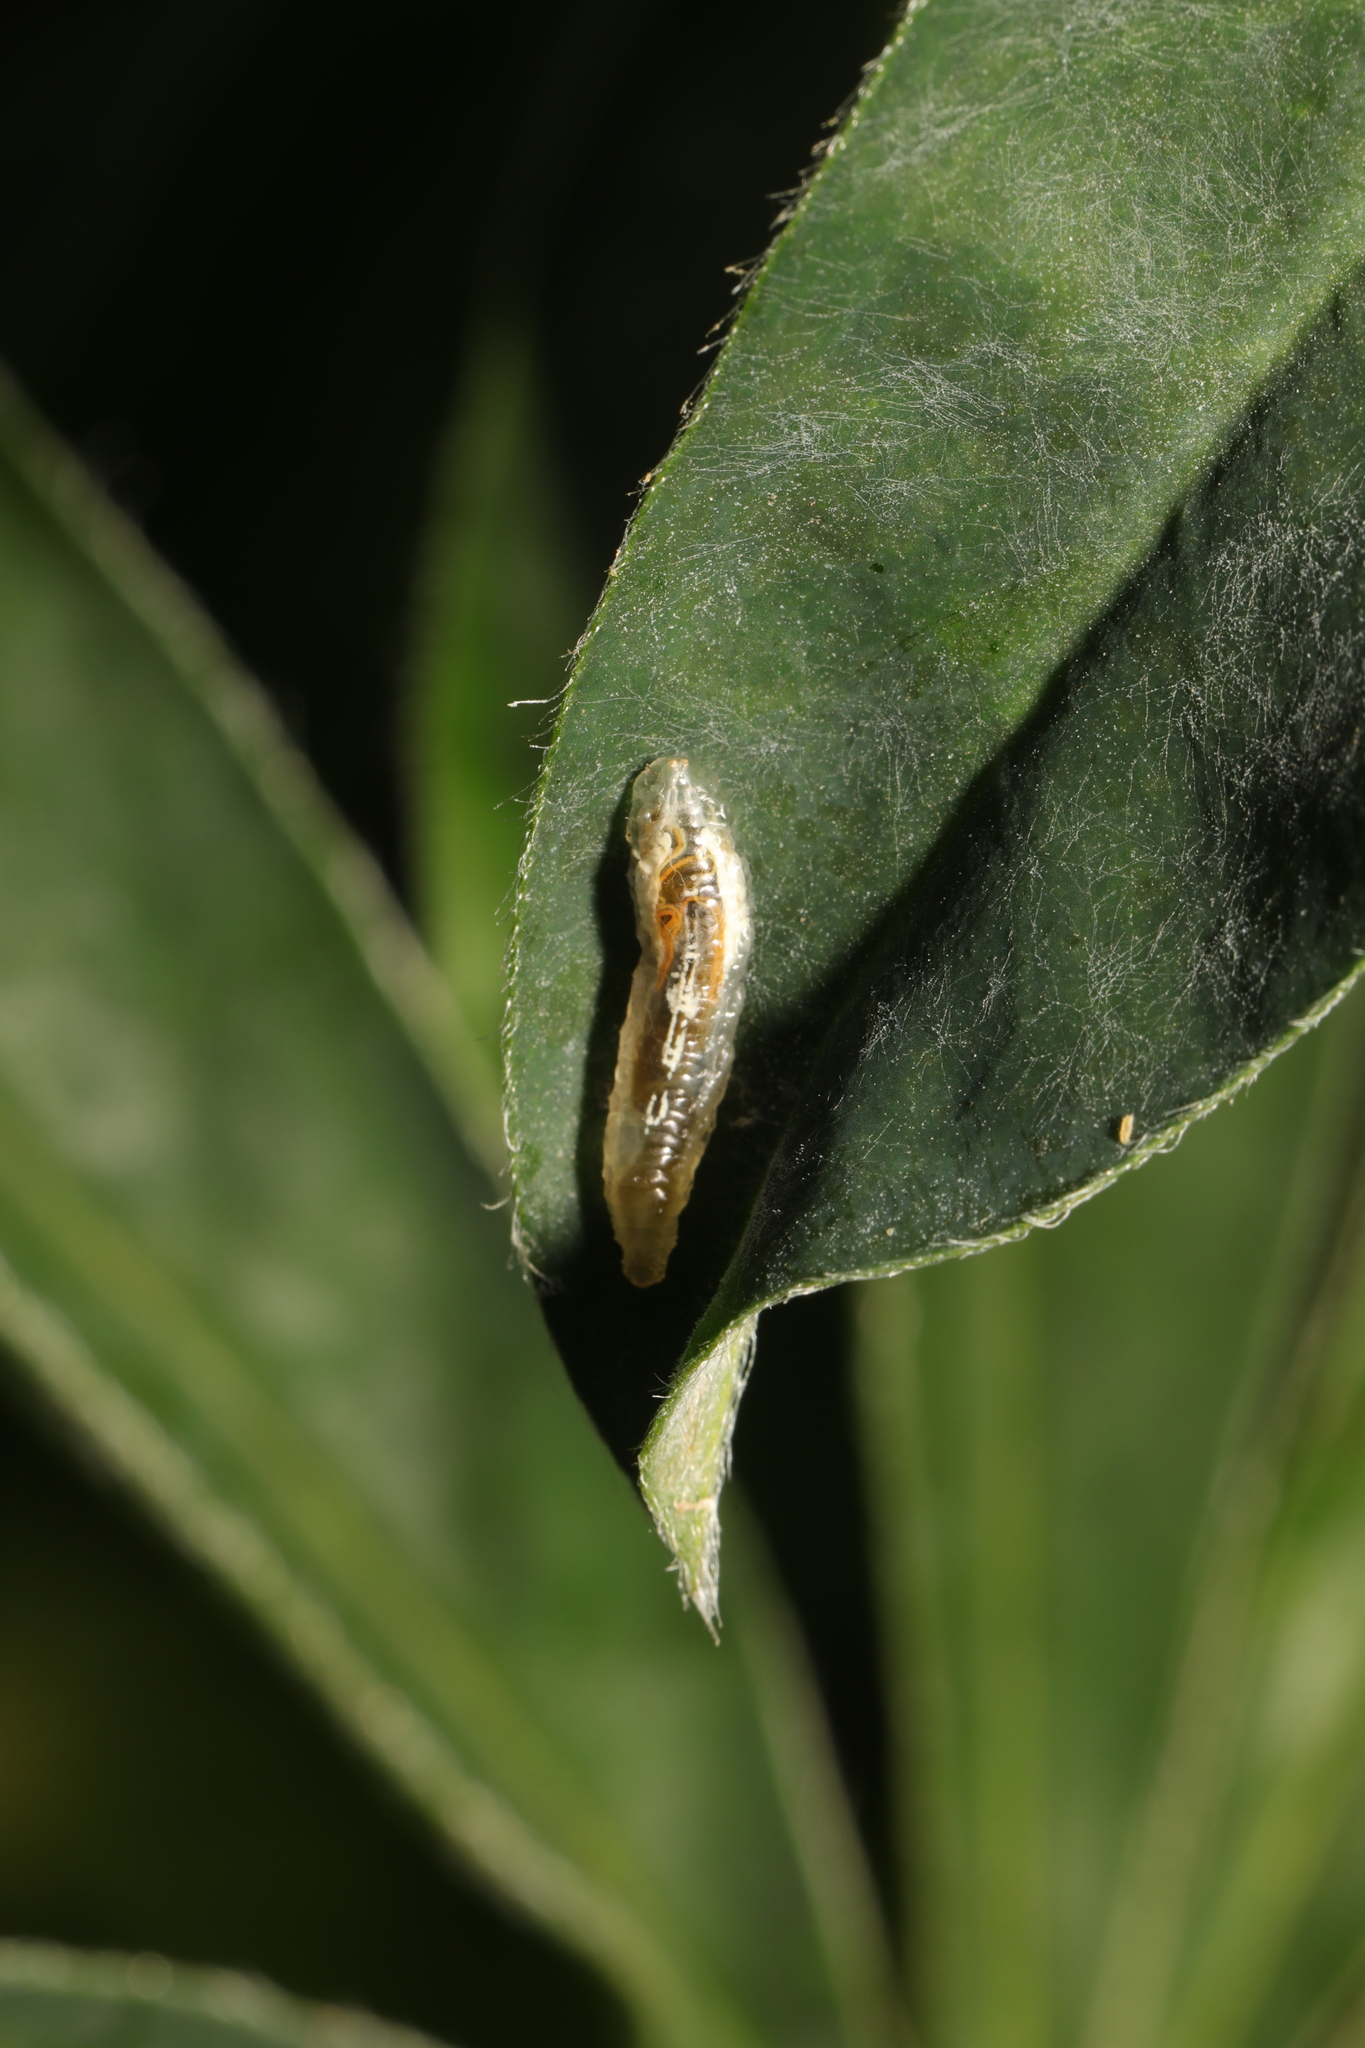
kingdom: Animalia
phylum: Arthropoda
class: Insecta
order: Diptera
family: Syrphidae
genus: Episyrphus
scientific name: Episyrphus balteatus
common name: Marmalade hoverfly
